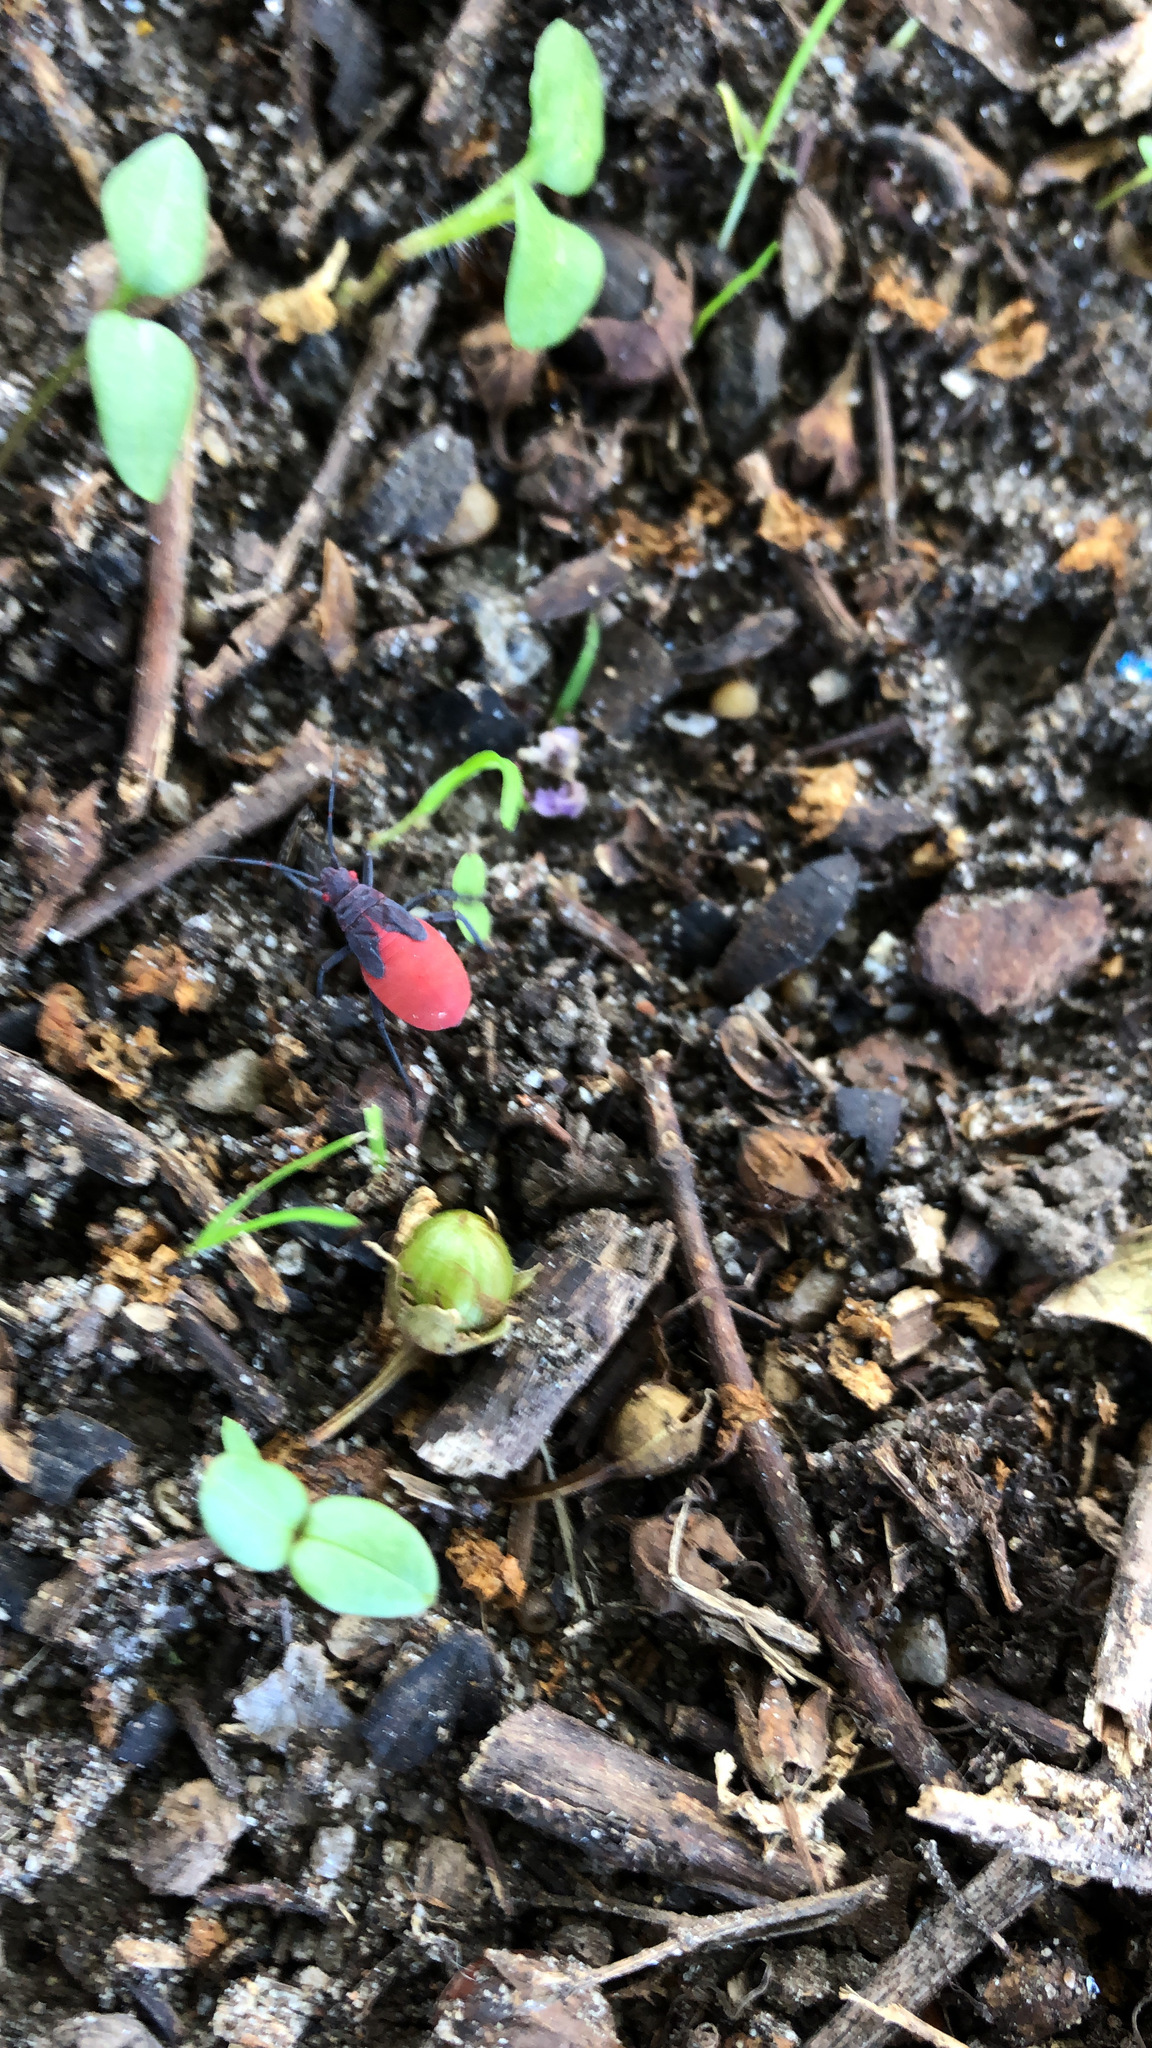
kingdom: Animalia
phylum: Arthropoda
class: Insecta
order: Hemiptera
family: Rhopalidae
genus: Jadera
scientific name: Jadera haematoloma
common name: Red-shouldered bug
